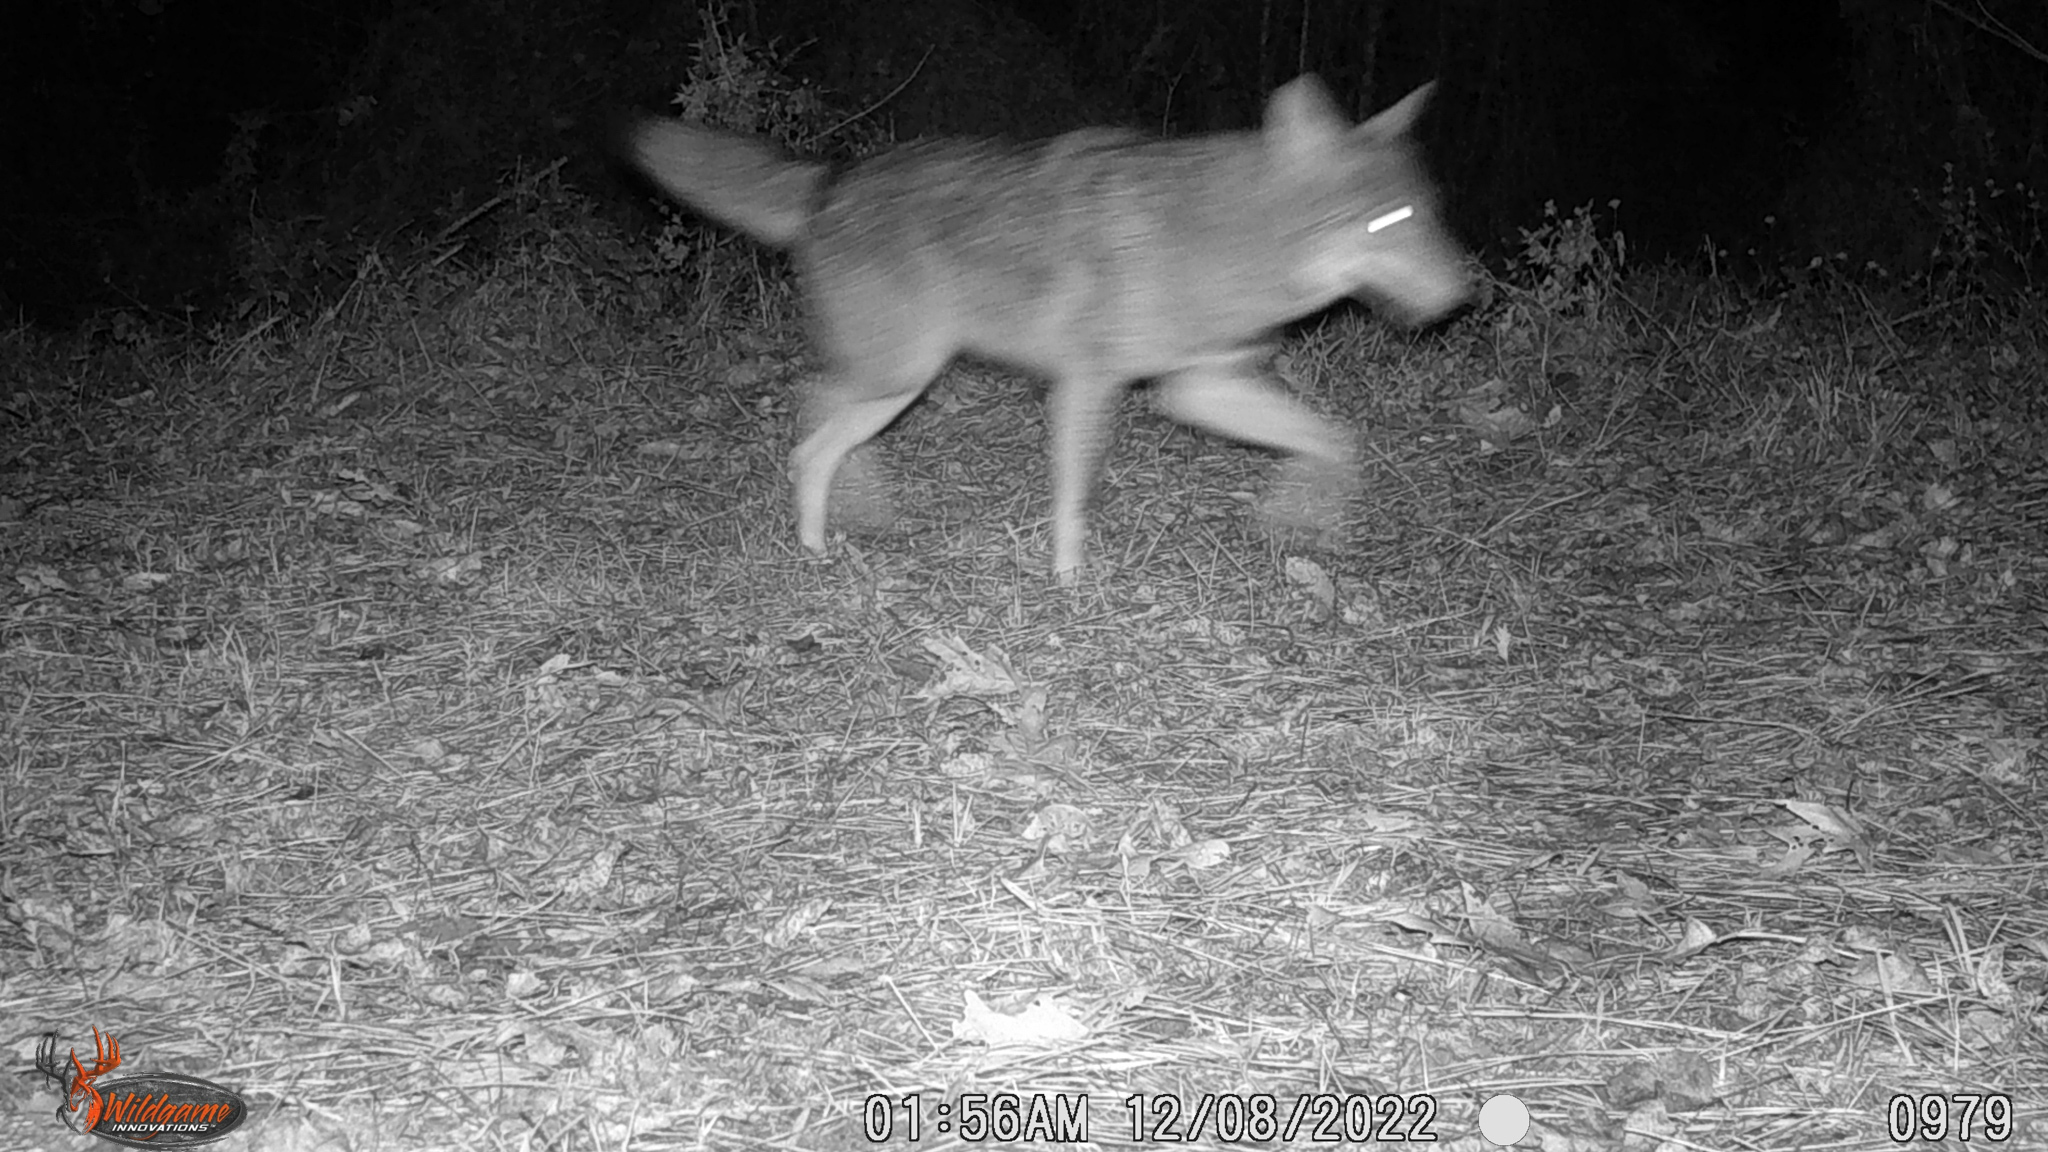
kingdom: Animalia
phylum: Chordata
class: Mammalia
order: Carnivora
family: Canidae
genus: Canis
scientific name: Canis latrans
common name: Coyote
